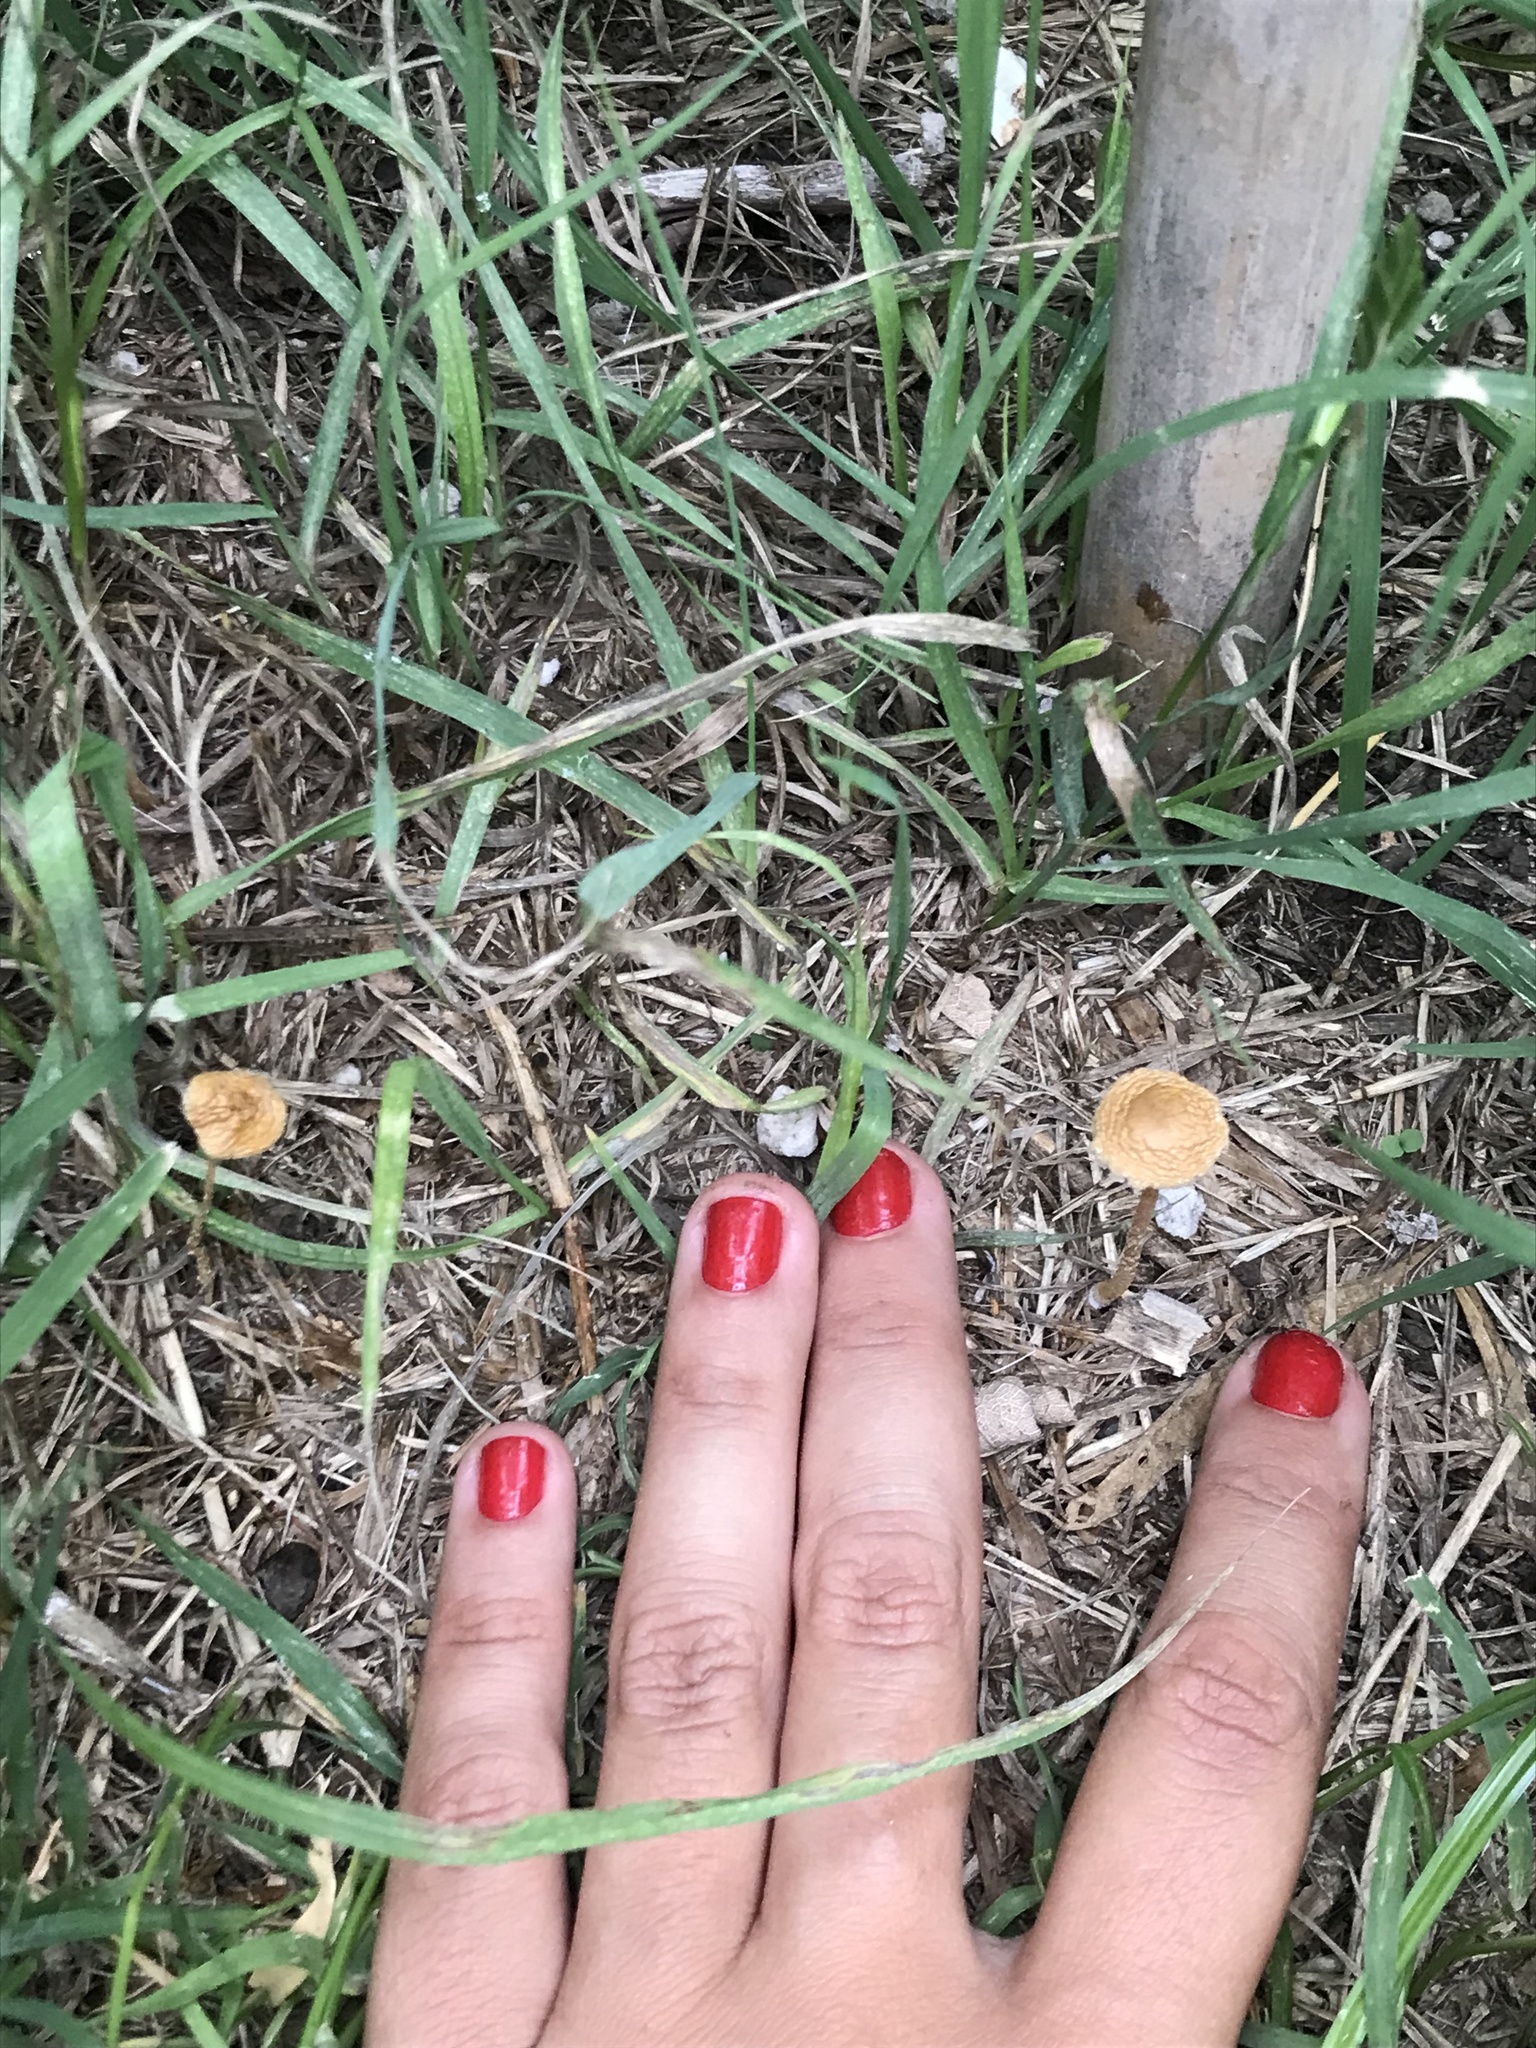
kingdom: Fungi
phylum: Basidiomycota
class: Agaricomycetes
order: Agaricales
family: Strophariaceae
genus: Agrocybe
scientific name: Agrocybe pediades
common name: Common fieldcap
